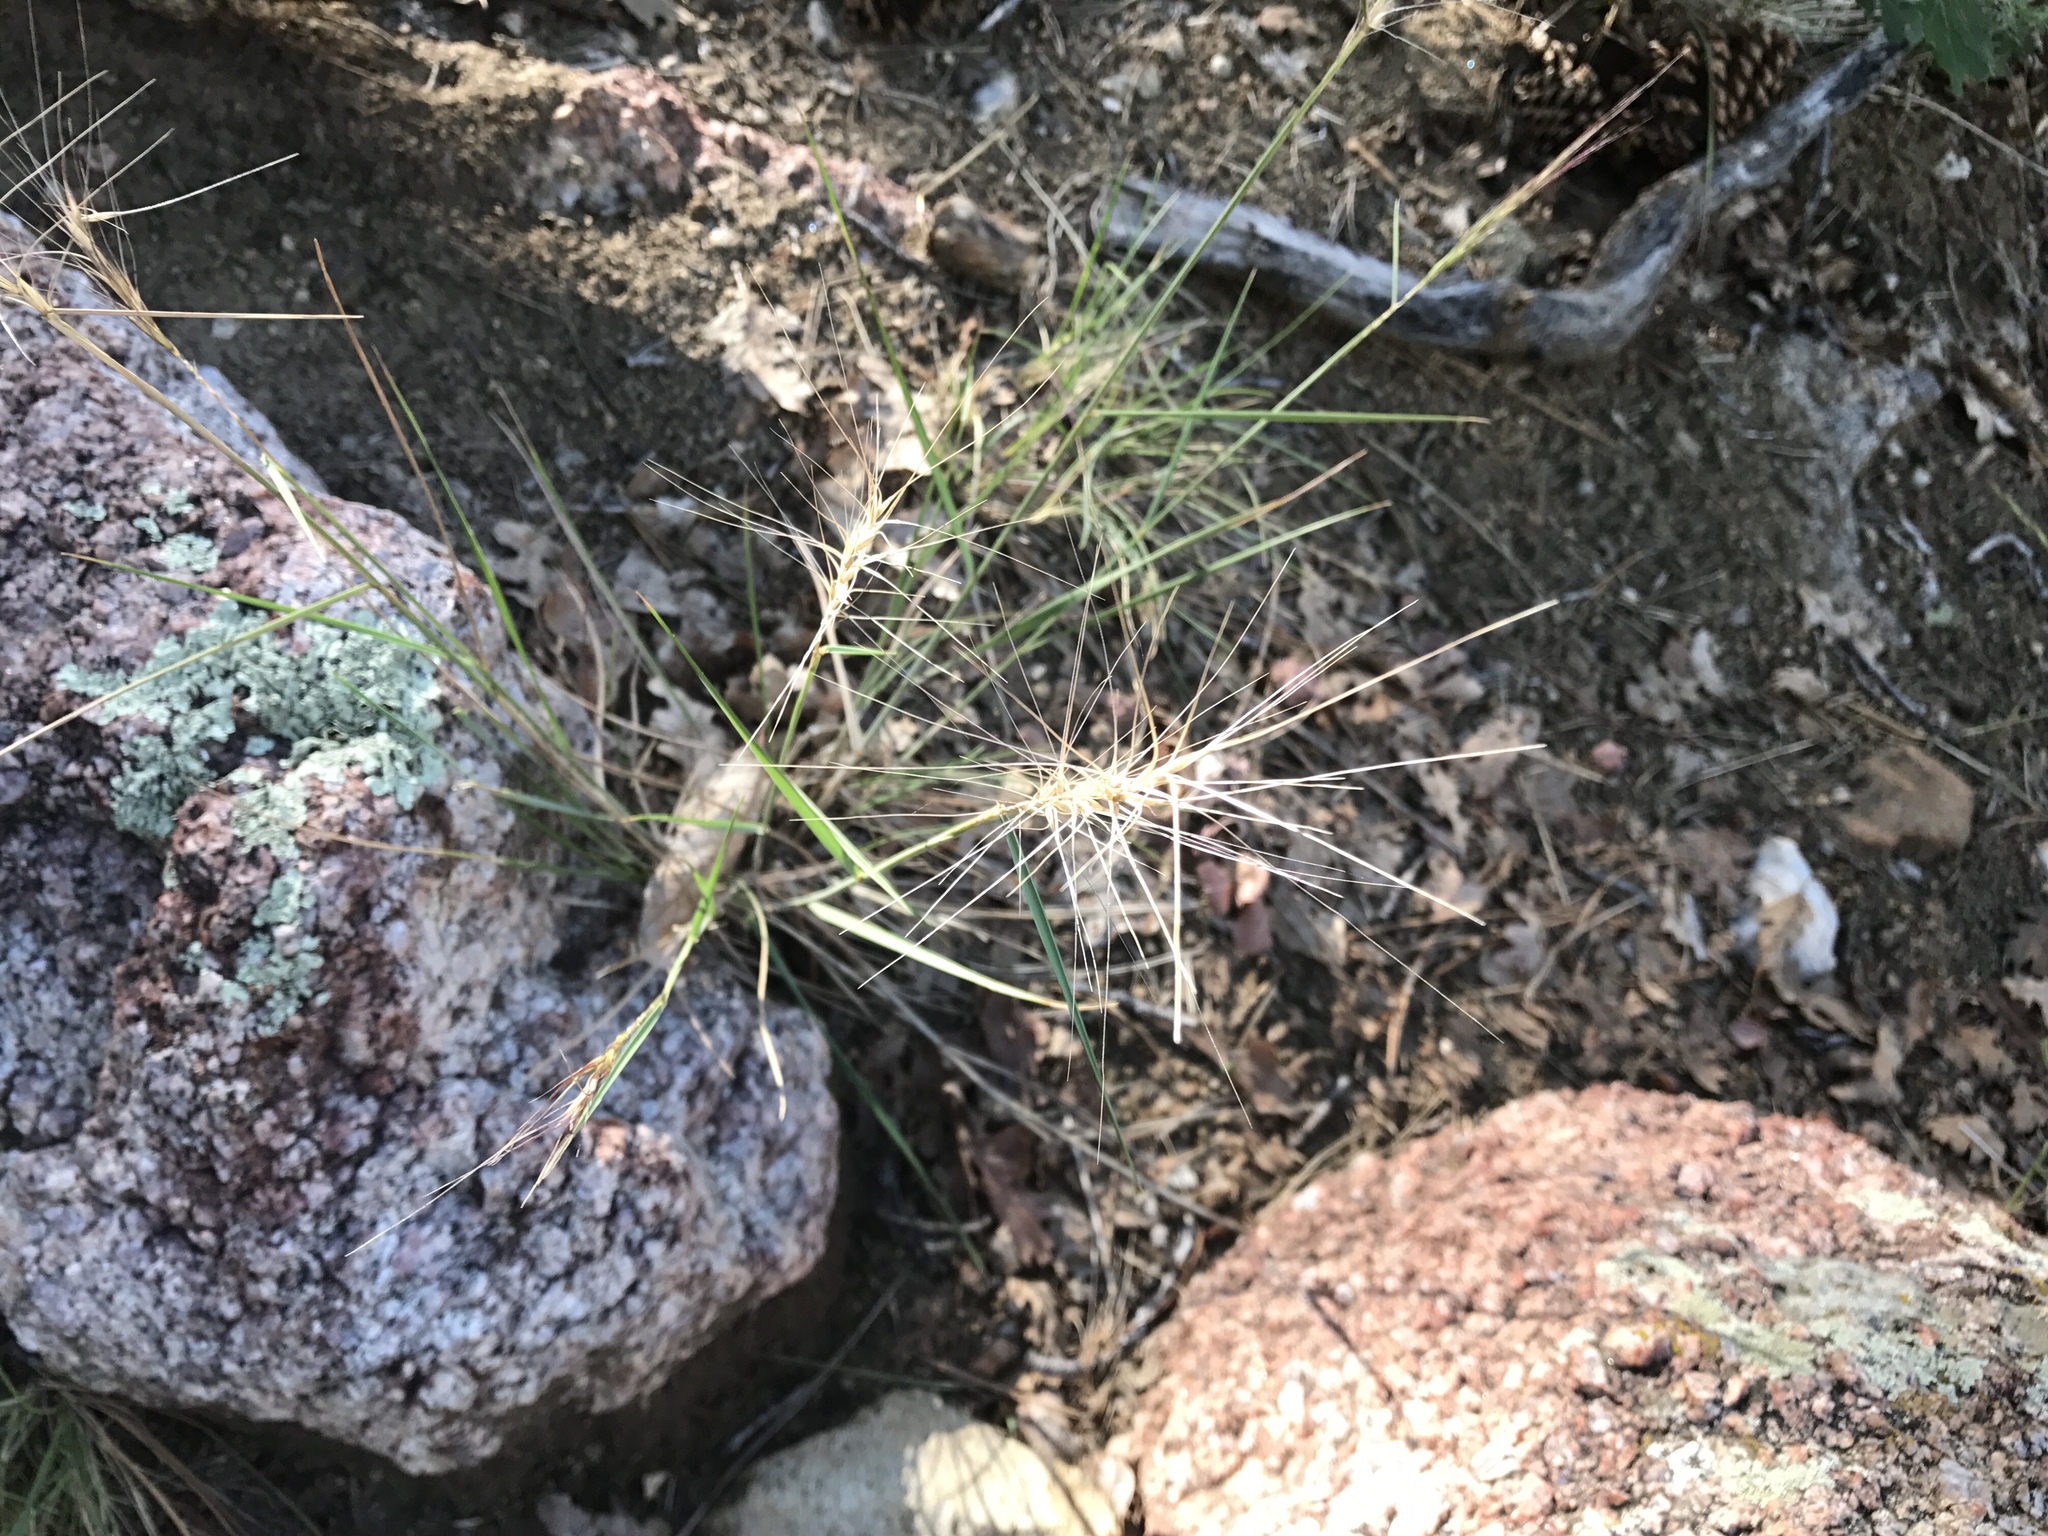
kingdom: Plantae
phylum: Tracheophyta
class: Liliopsida
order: Poales
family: Poaceae
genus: Elymus
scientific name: Elymus elymoides
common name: Bottlebrush squirreltail
